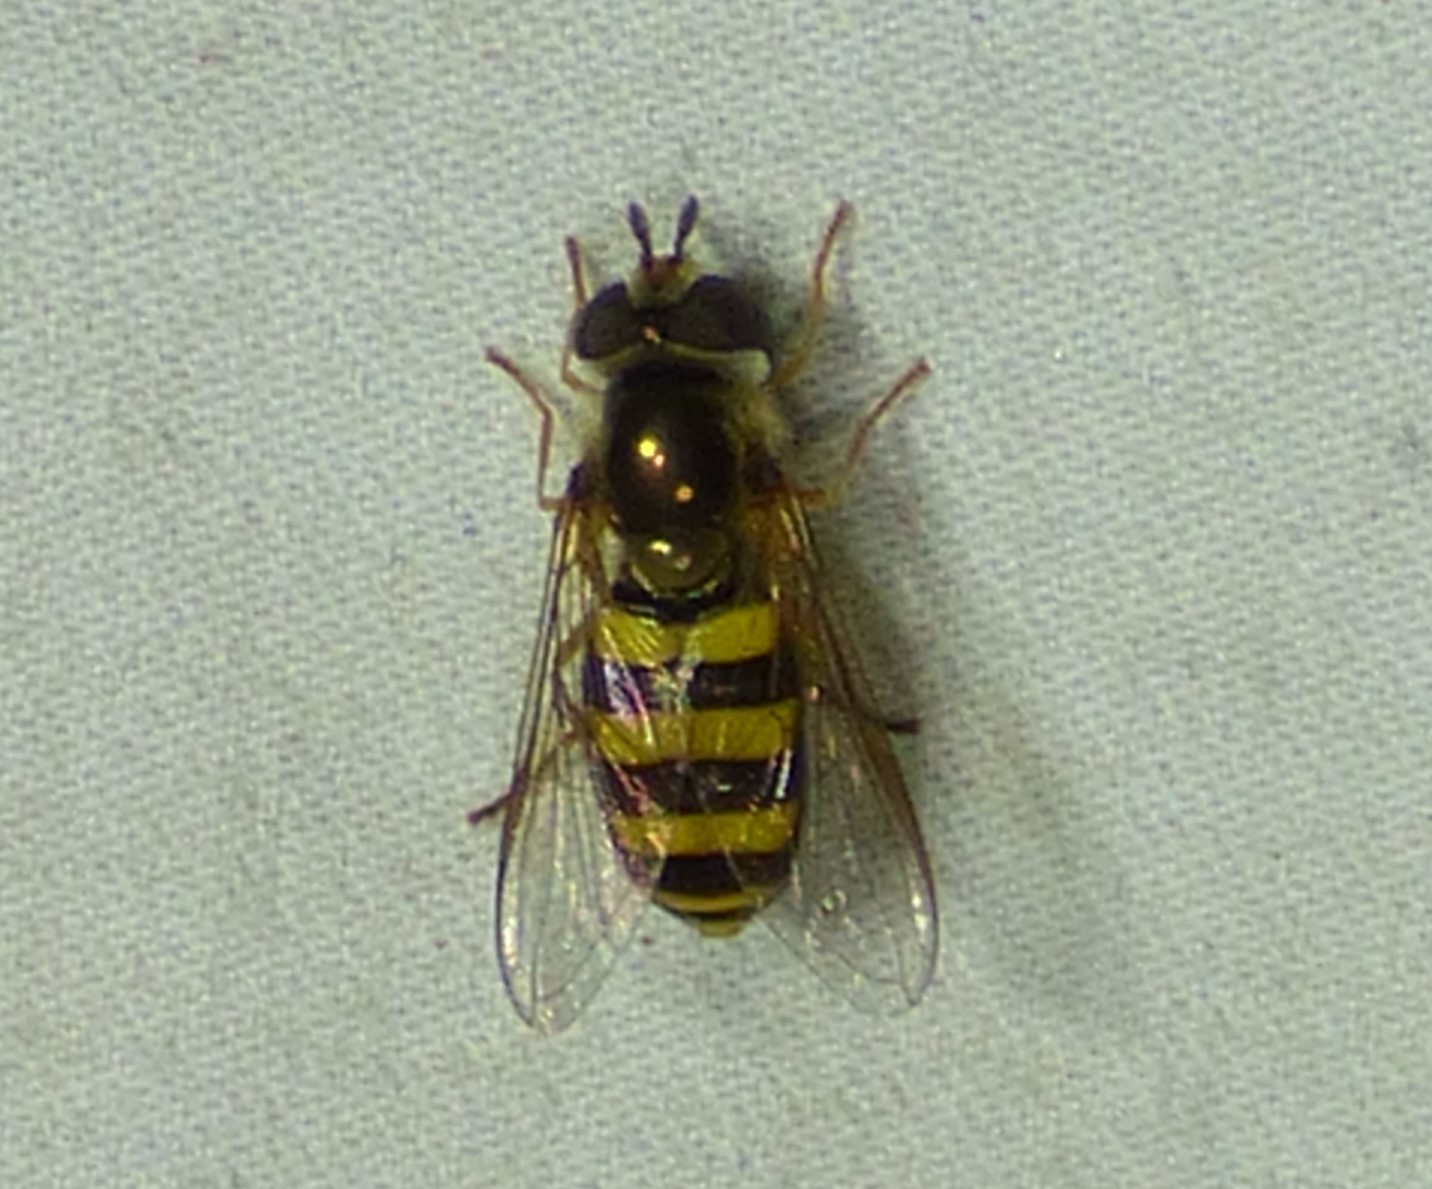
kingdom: Animalia
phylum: Arthropoda
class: Insecta
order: Diptera
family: Syrphidae
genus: Eupeodes
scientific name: Eupeodes
